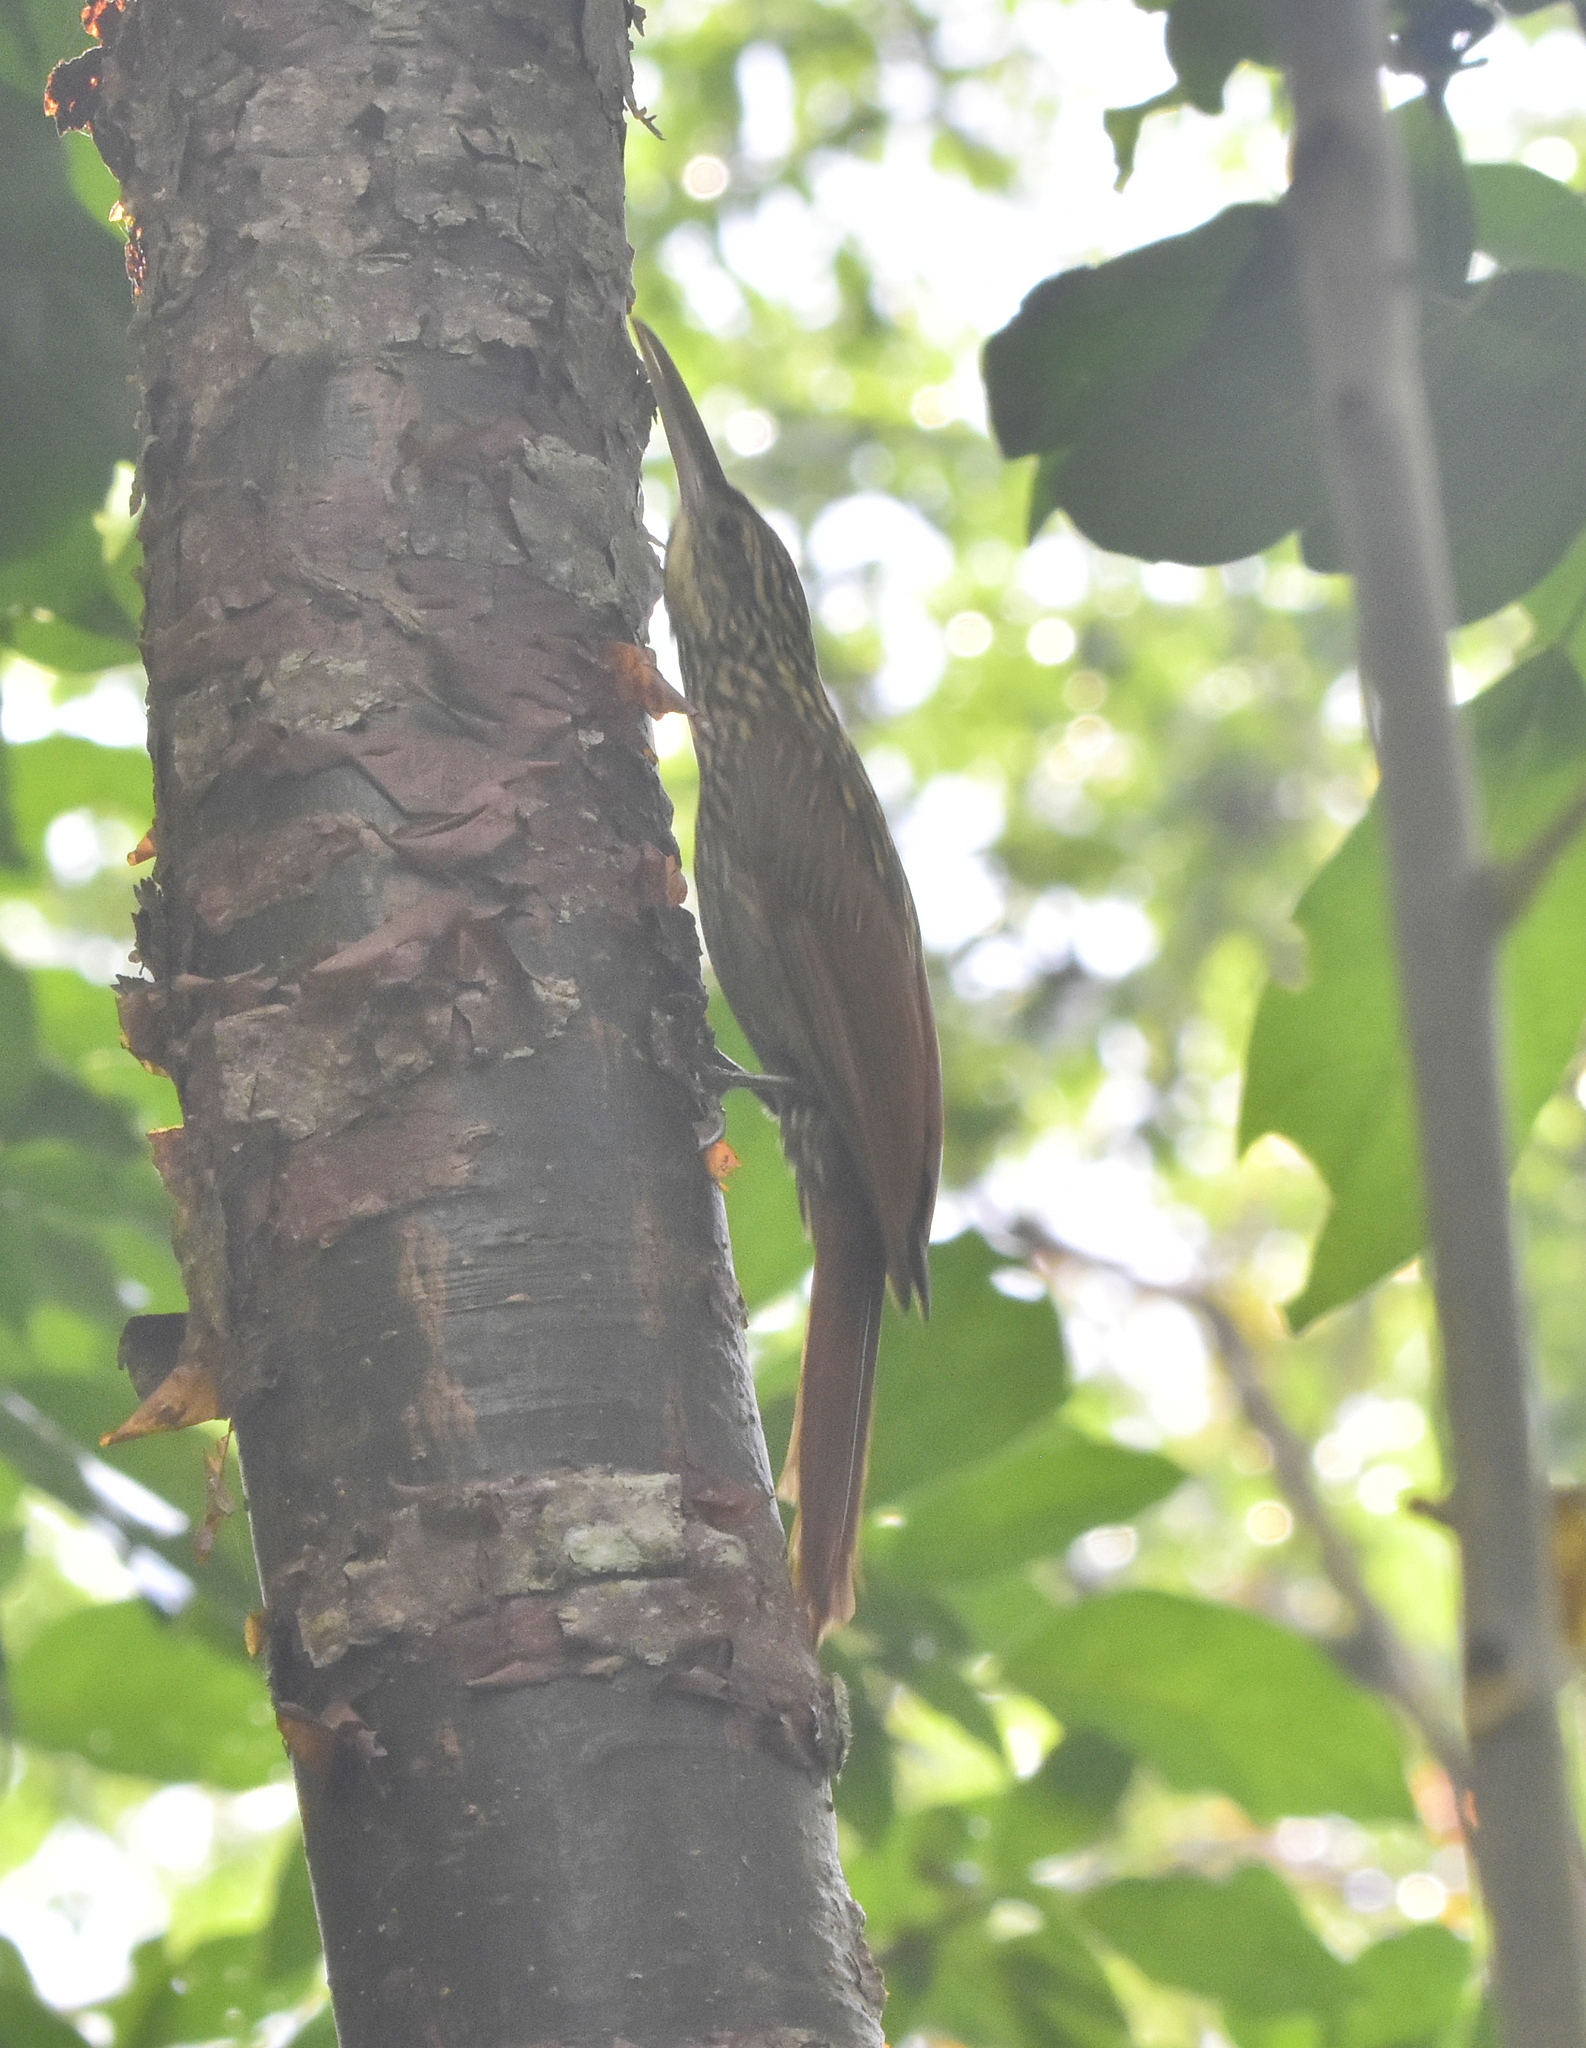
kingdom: Animalia
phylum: Chordata
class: Aves
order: Passeriformes
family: Furnariidae
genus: Xiphorhynchus
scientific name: Xiphorhynchus flavigaster
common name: Ivory-billed woodcreeper
